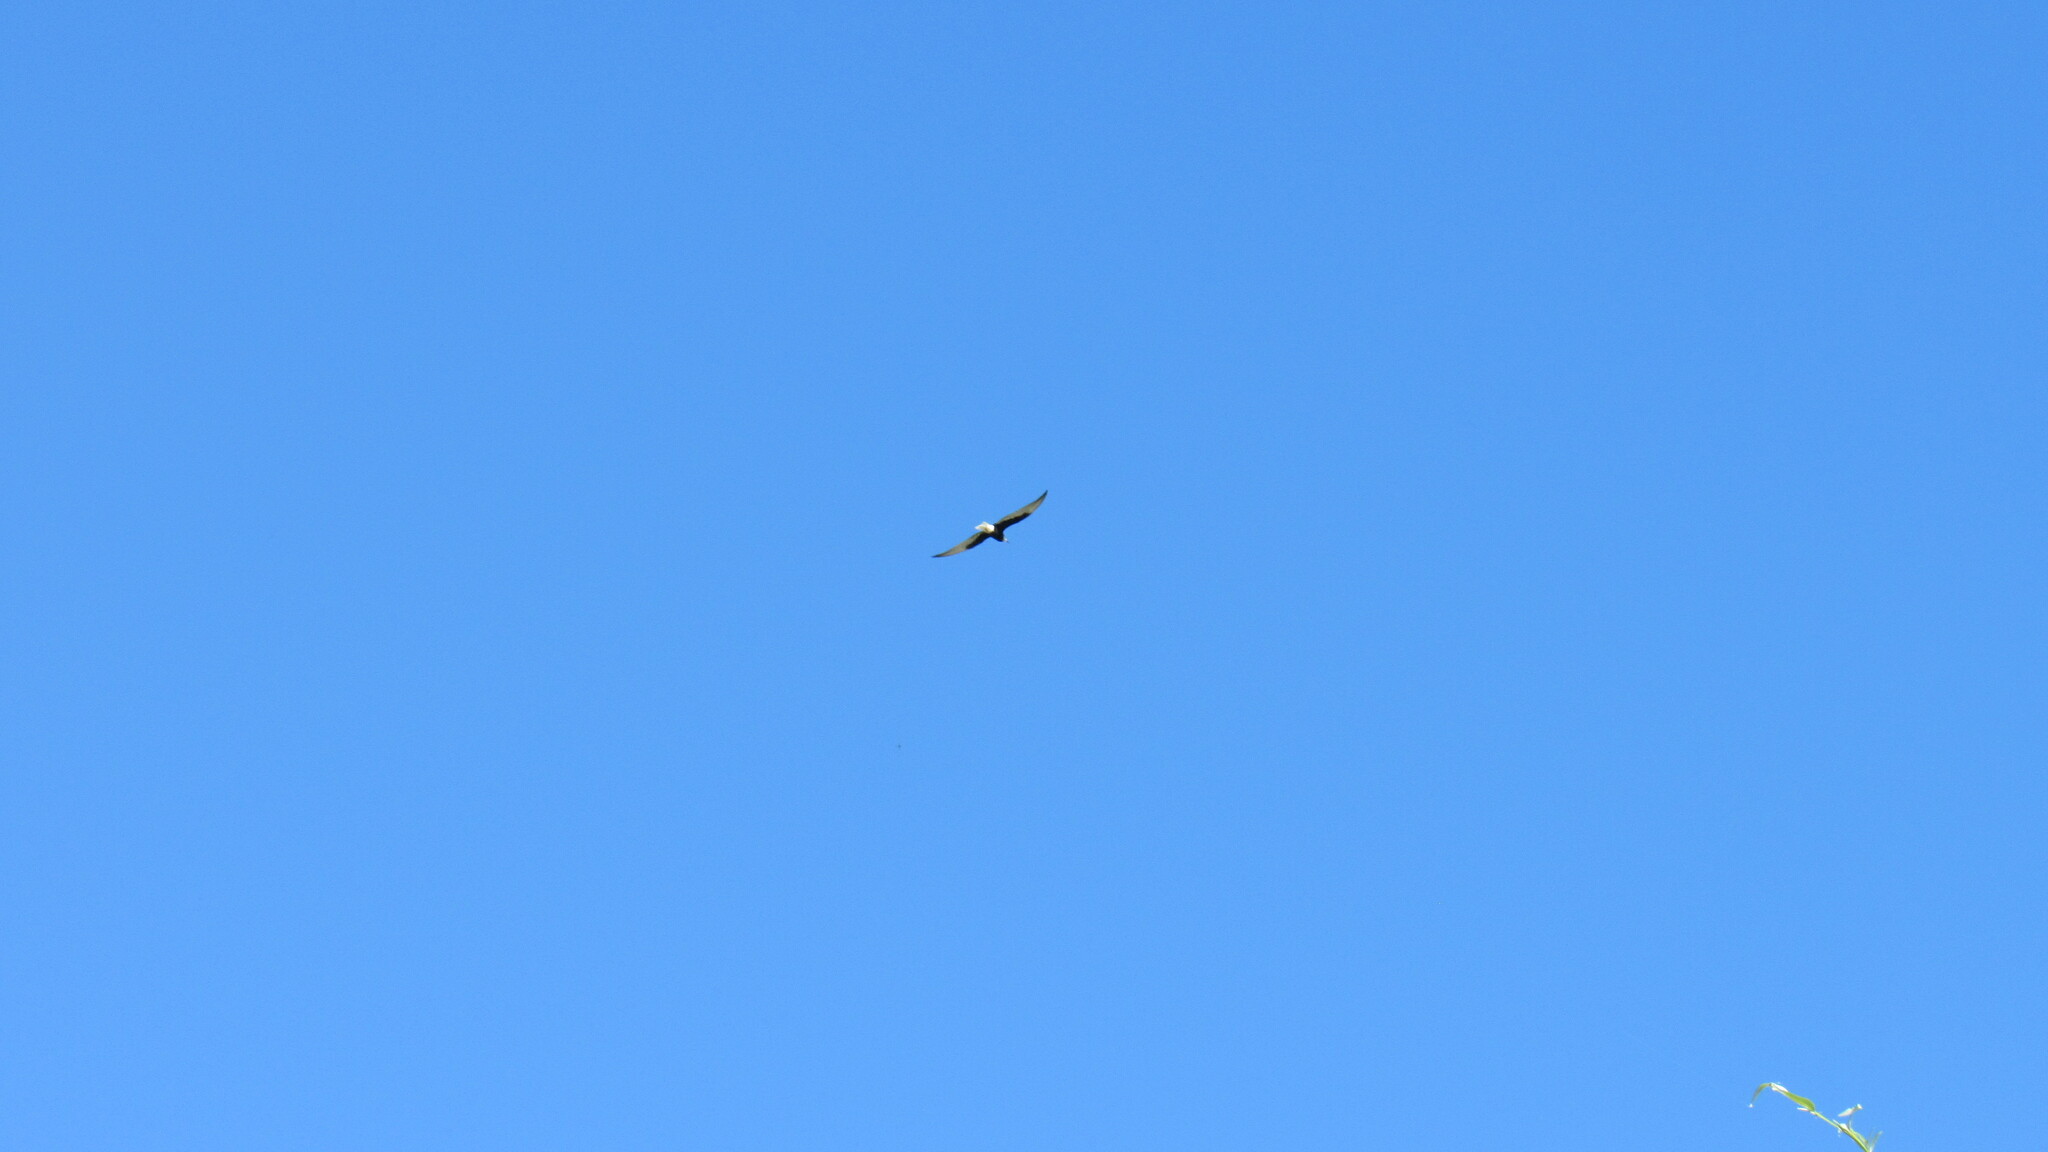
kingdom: Animalia
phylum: Chordata
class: Aves
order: Charadriiformes
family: Laridae
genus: Chlidonias
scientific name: Chlidonias leucopterus
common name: White-winged tern
